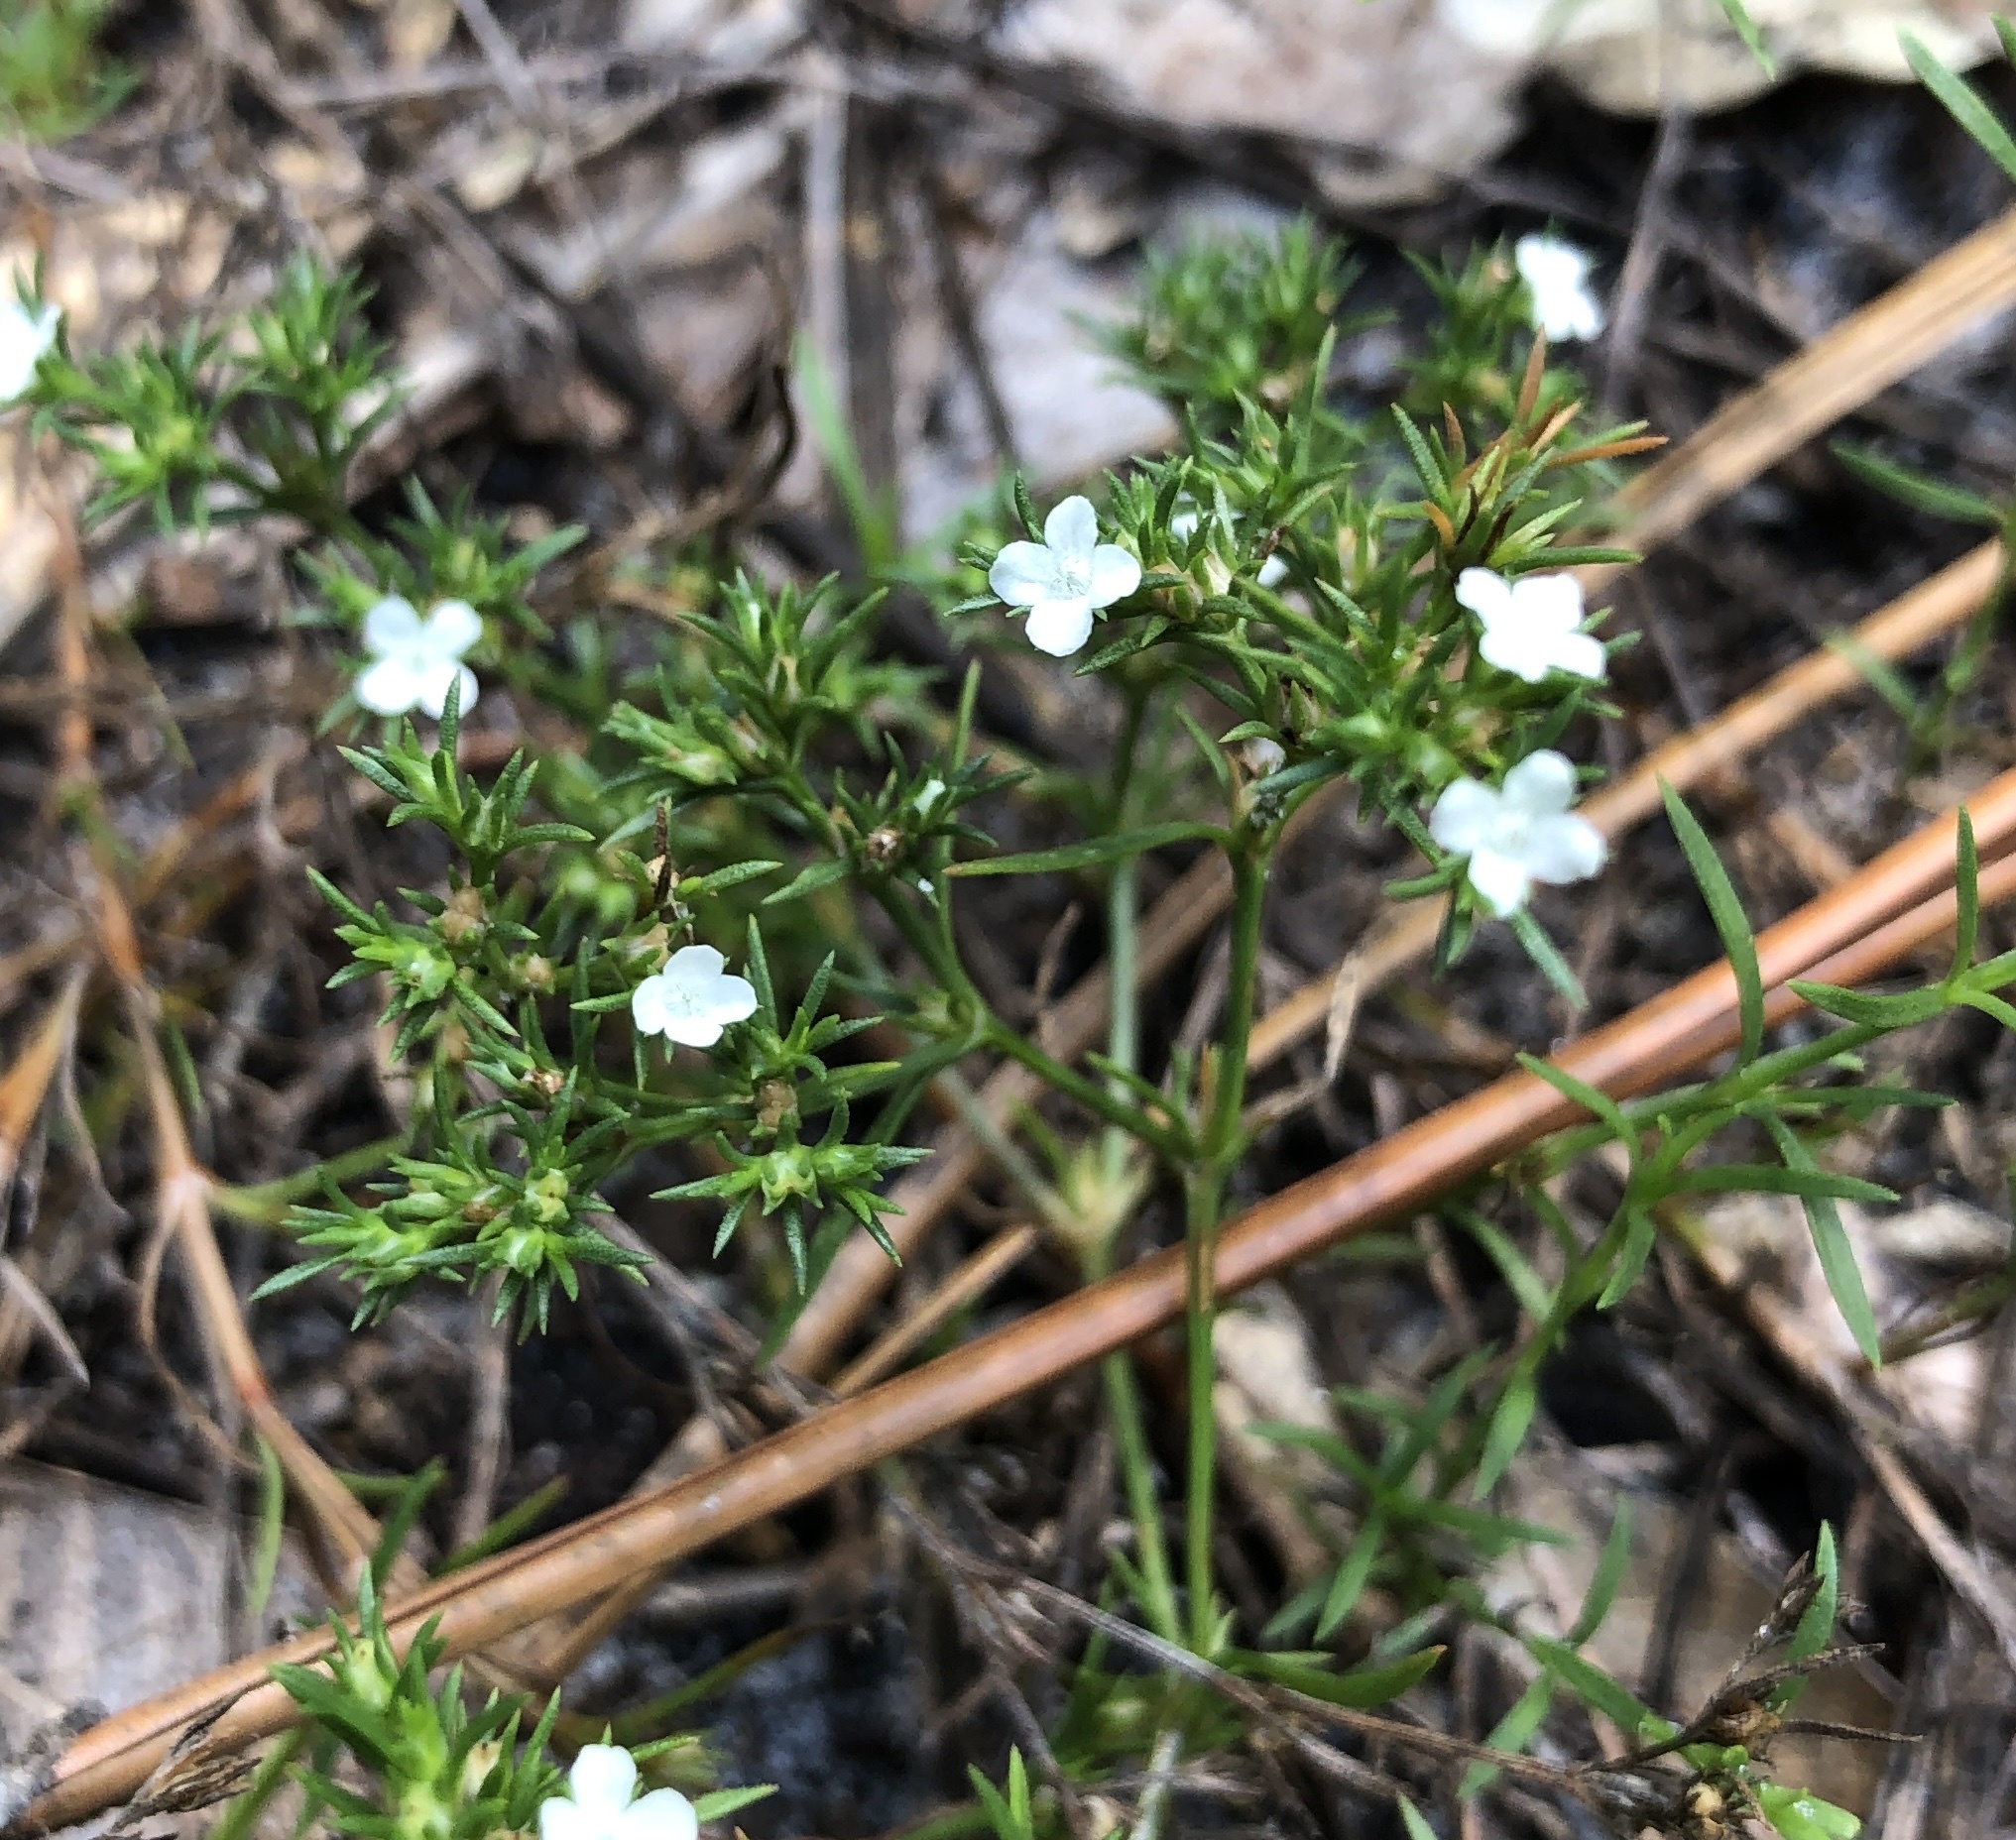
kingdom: Plantae
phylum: Tracheophyta
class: Magnoliopsida
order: Lamiales
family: Tetrachondraceae
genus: Polypremum
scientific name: Polypremum procumbens
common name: Juniper-leaf
